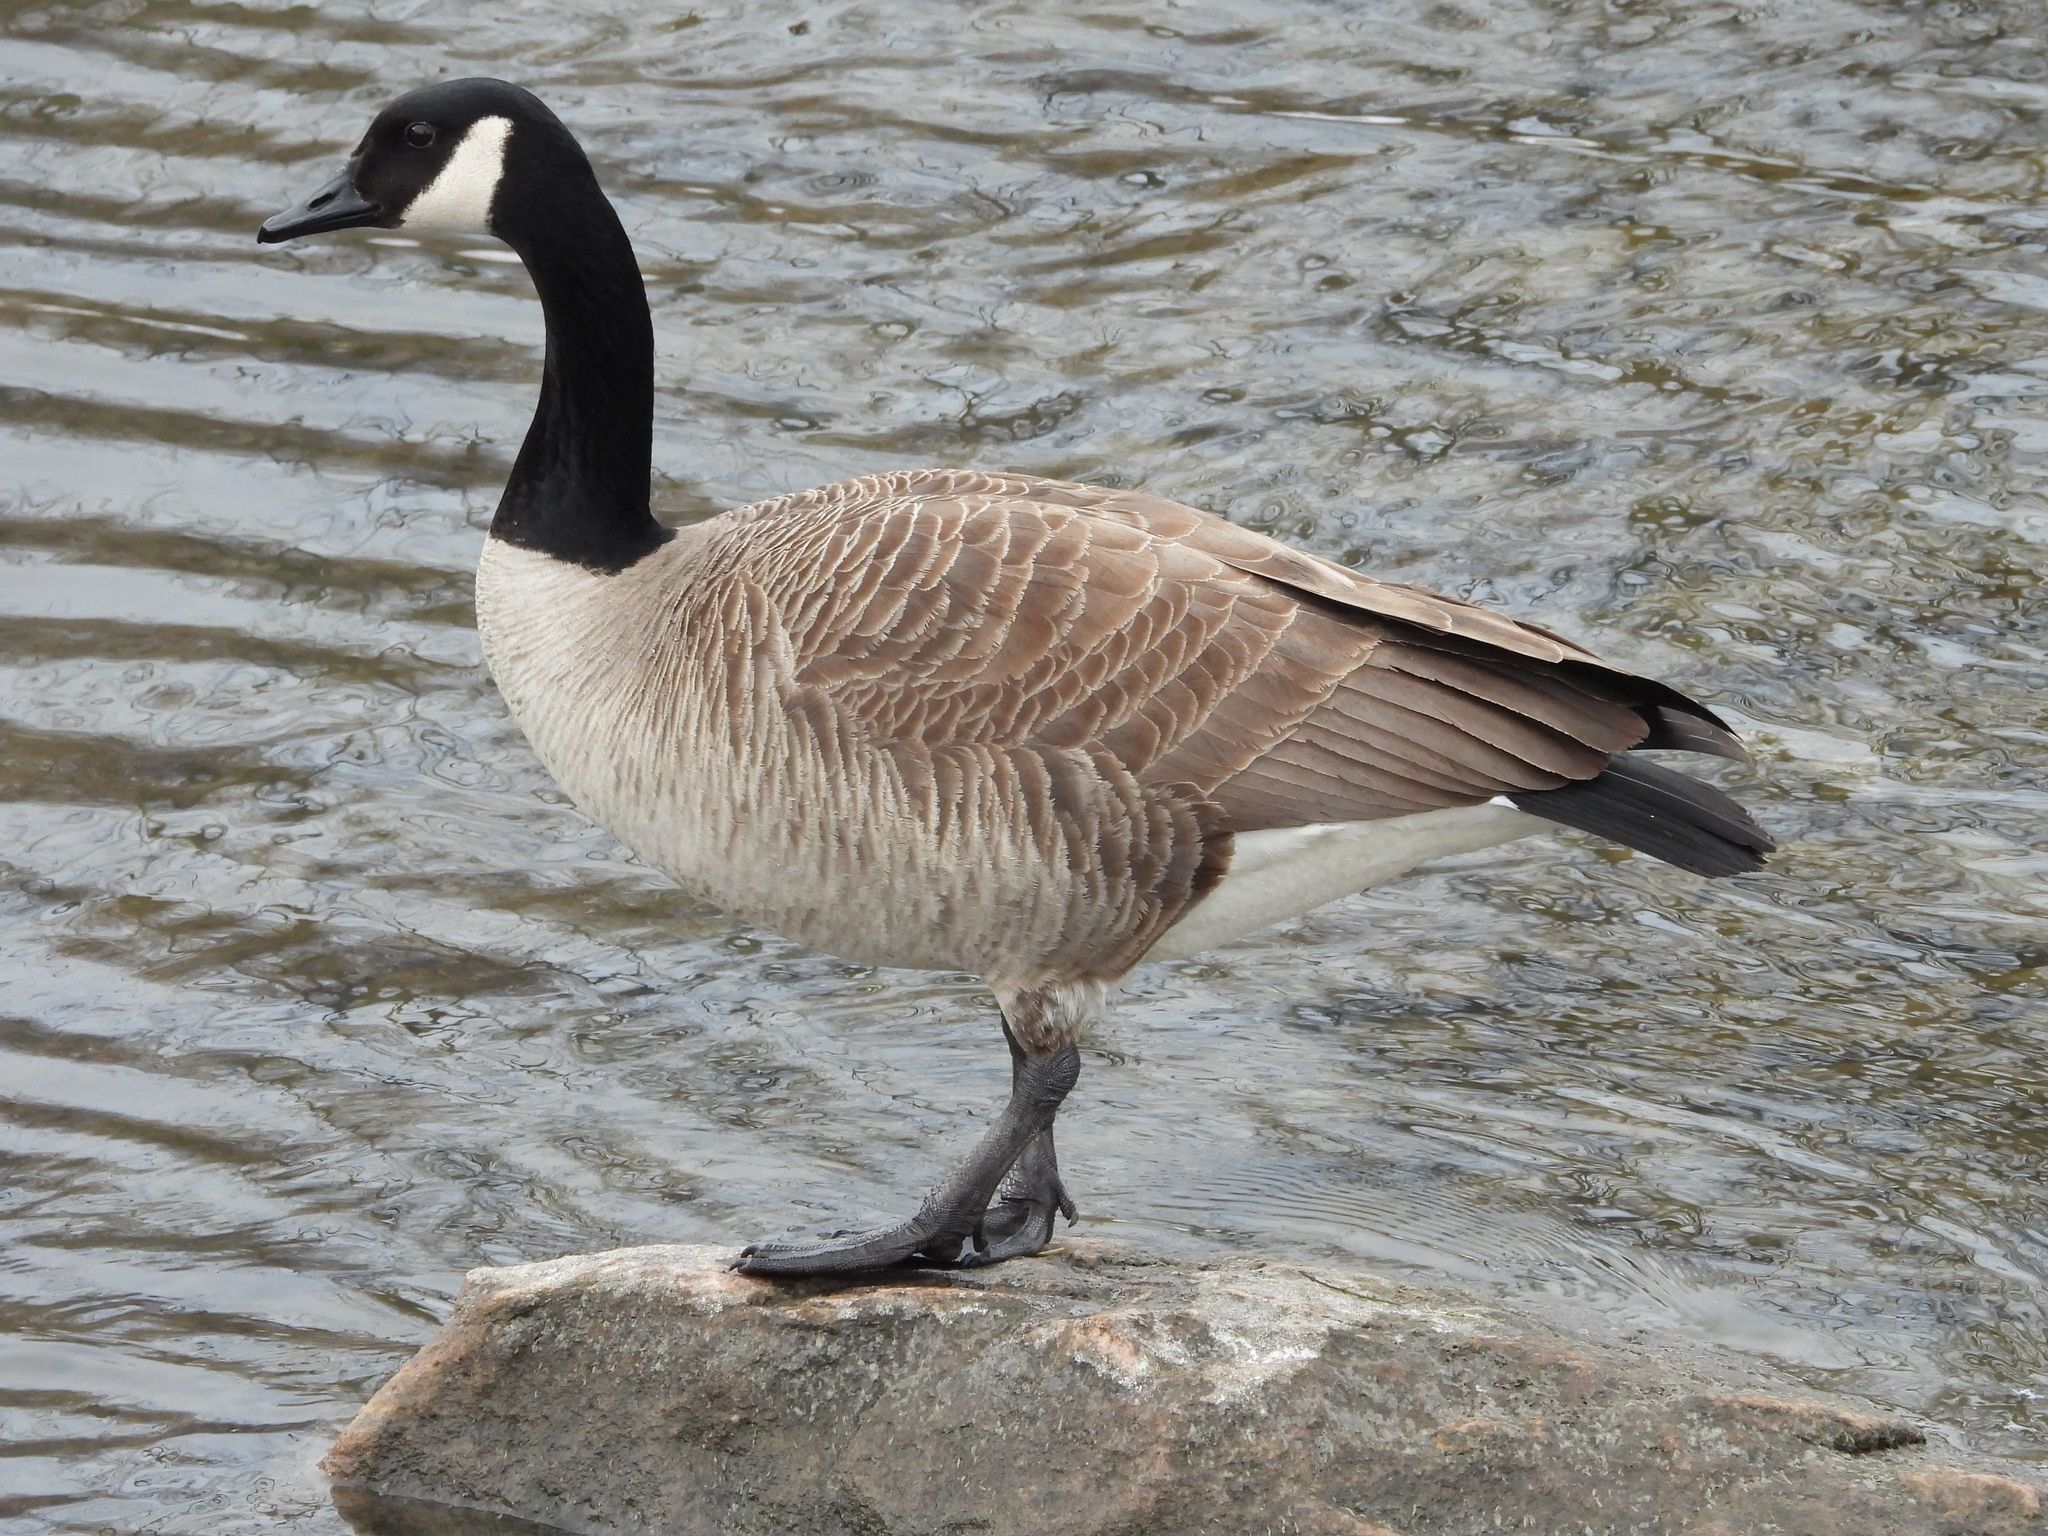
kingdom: Animalia
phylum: Chordata
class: Aves
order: Anseriformes
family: Anatidae
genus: Branta
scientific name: Branta canadensis
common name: Canada goose
